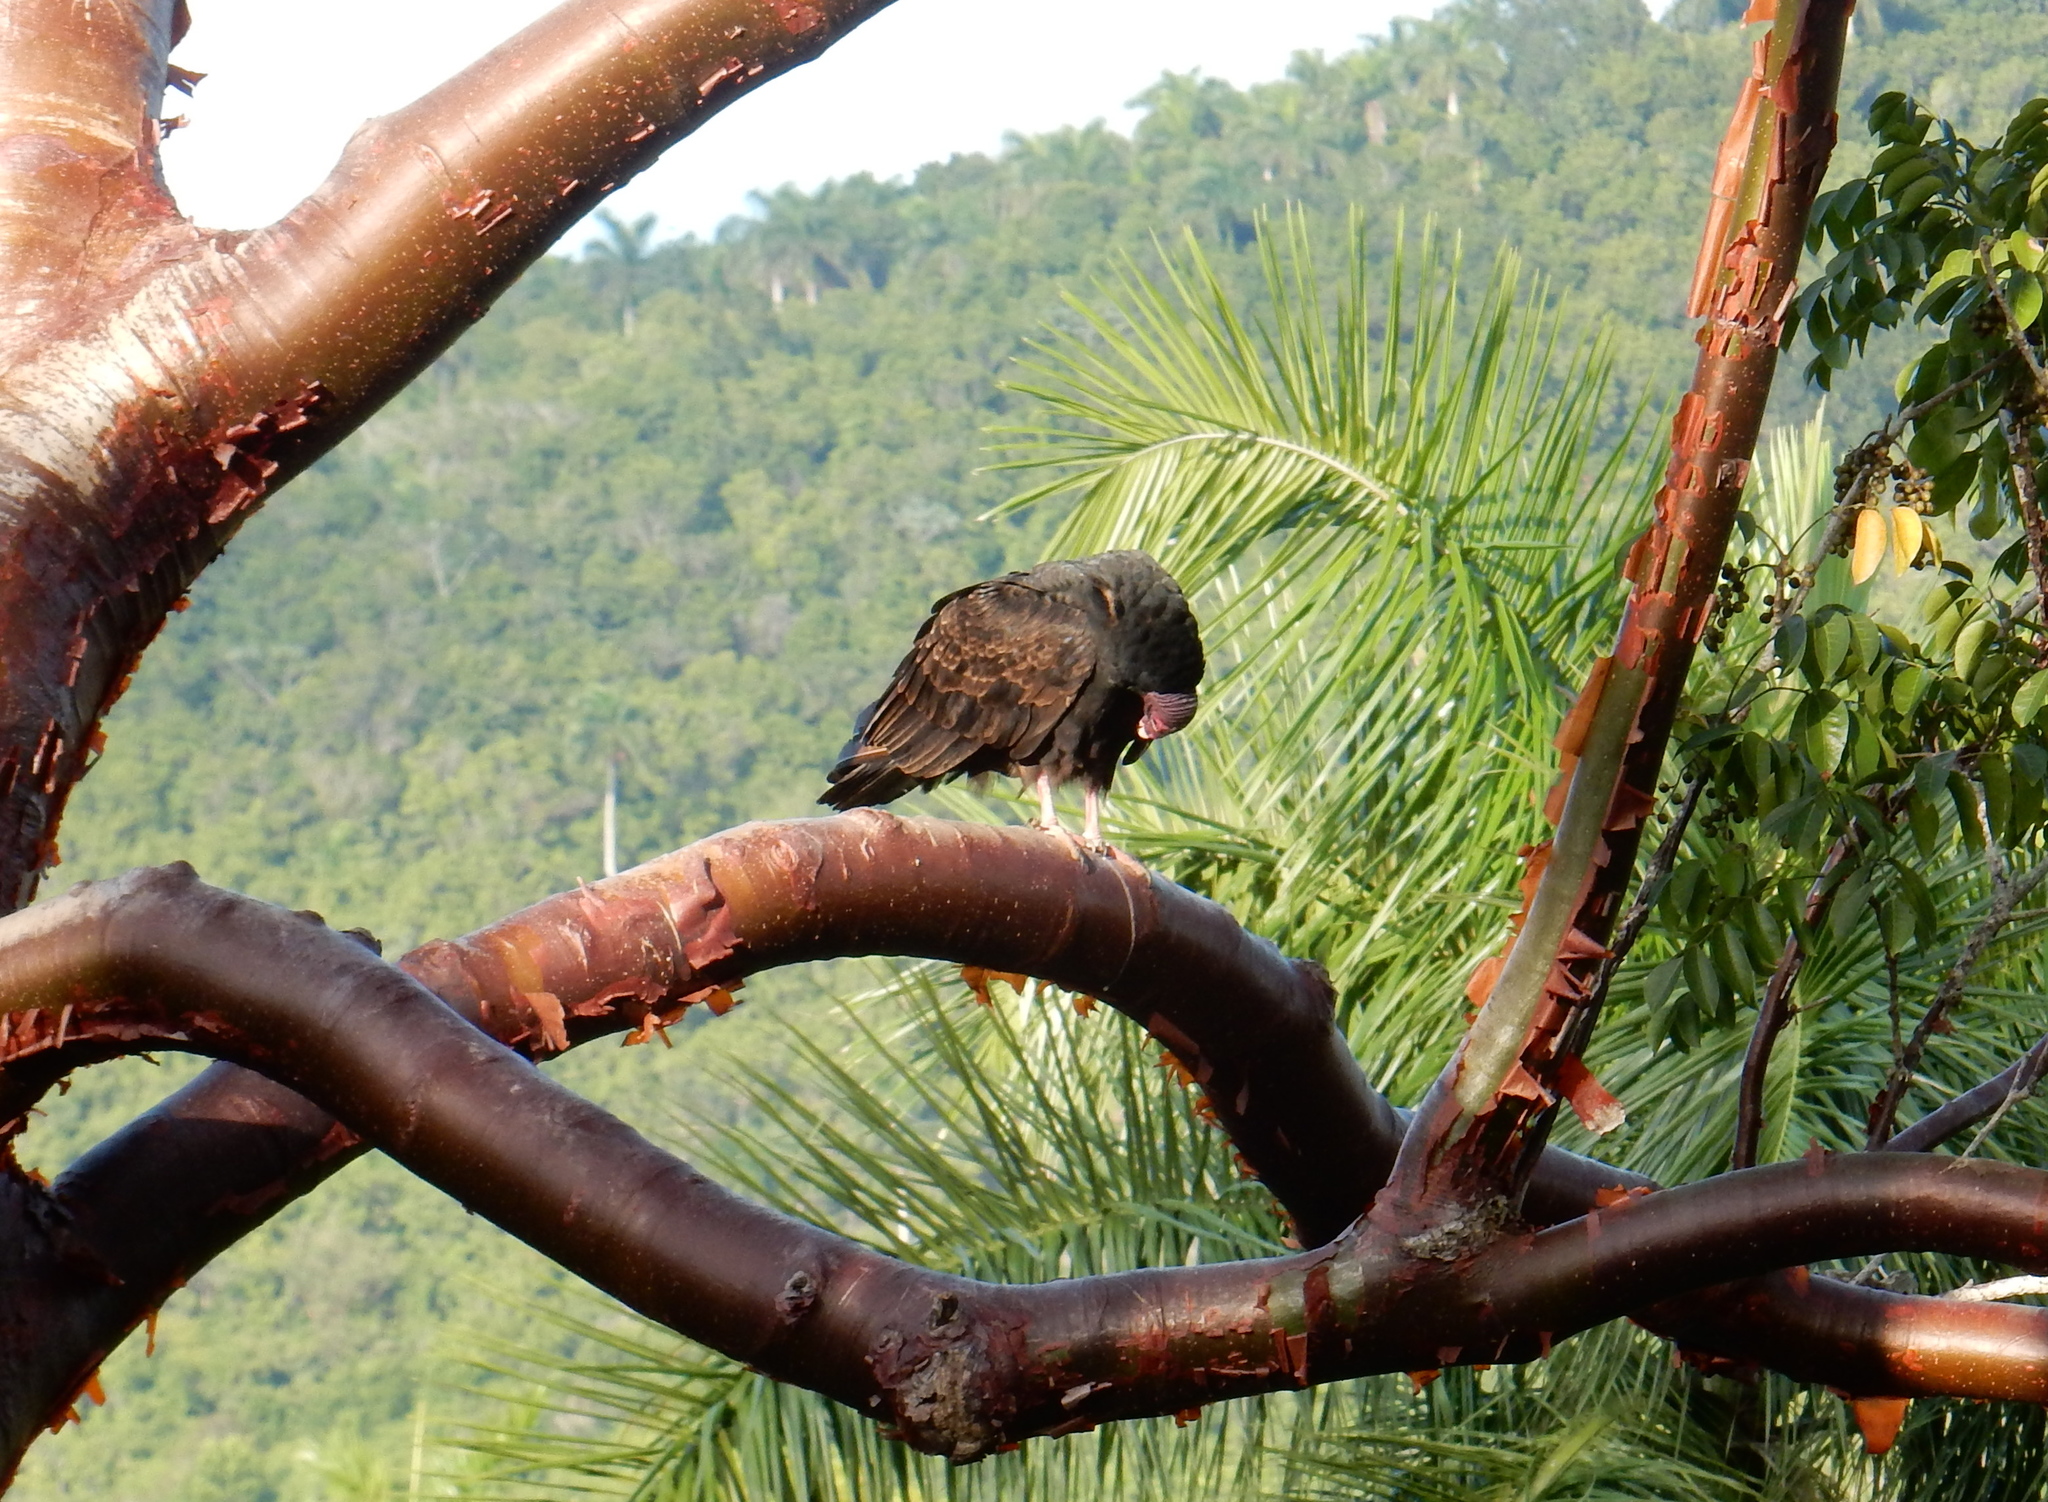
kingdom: Animalia
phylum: Chordata
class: Aves
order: Accipitriformes
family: Cathartidae
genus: Cathartes
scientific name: Cathartes aura
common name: Turkey vulture
